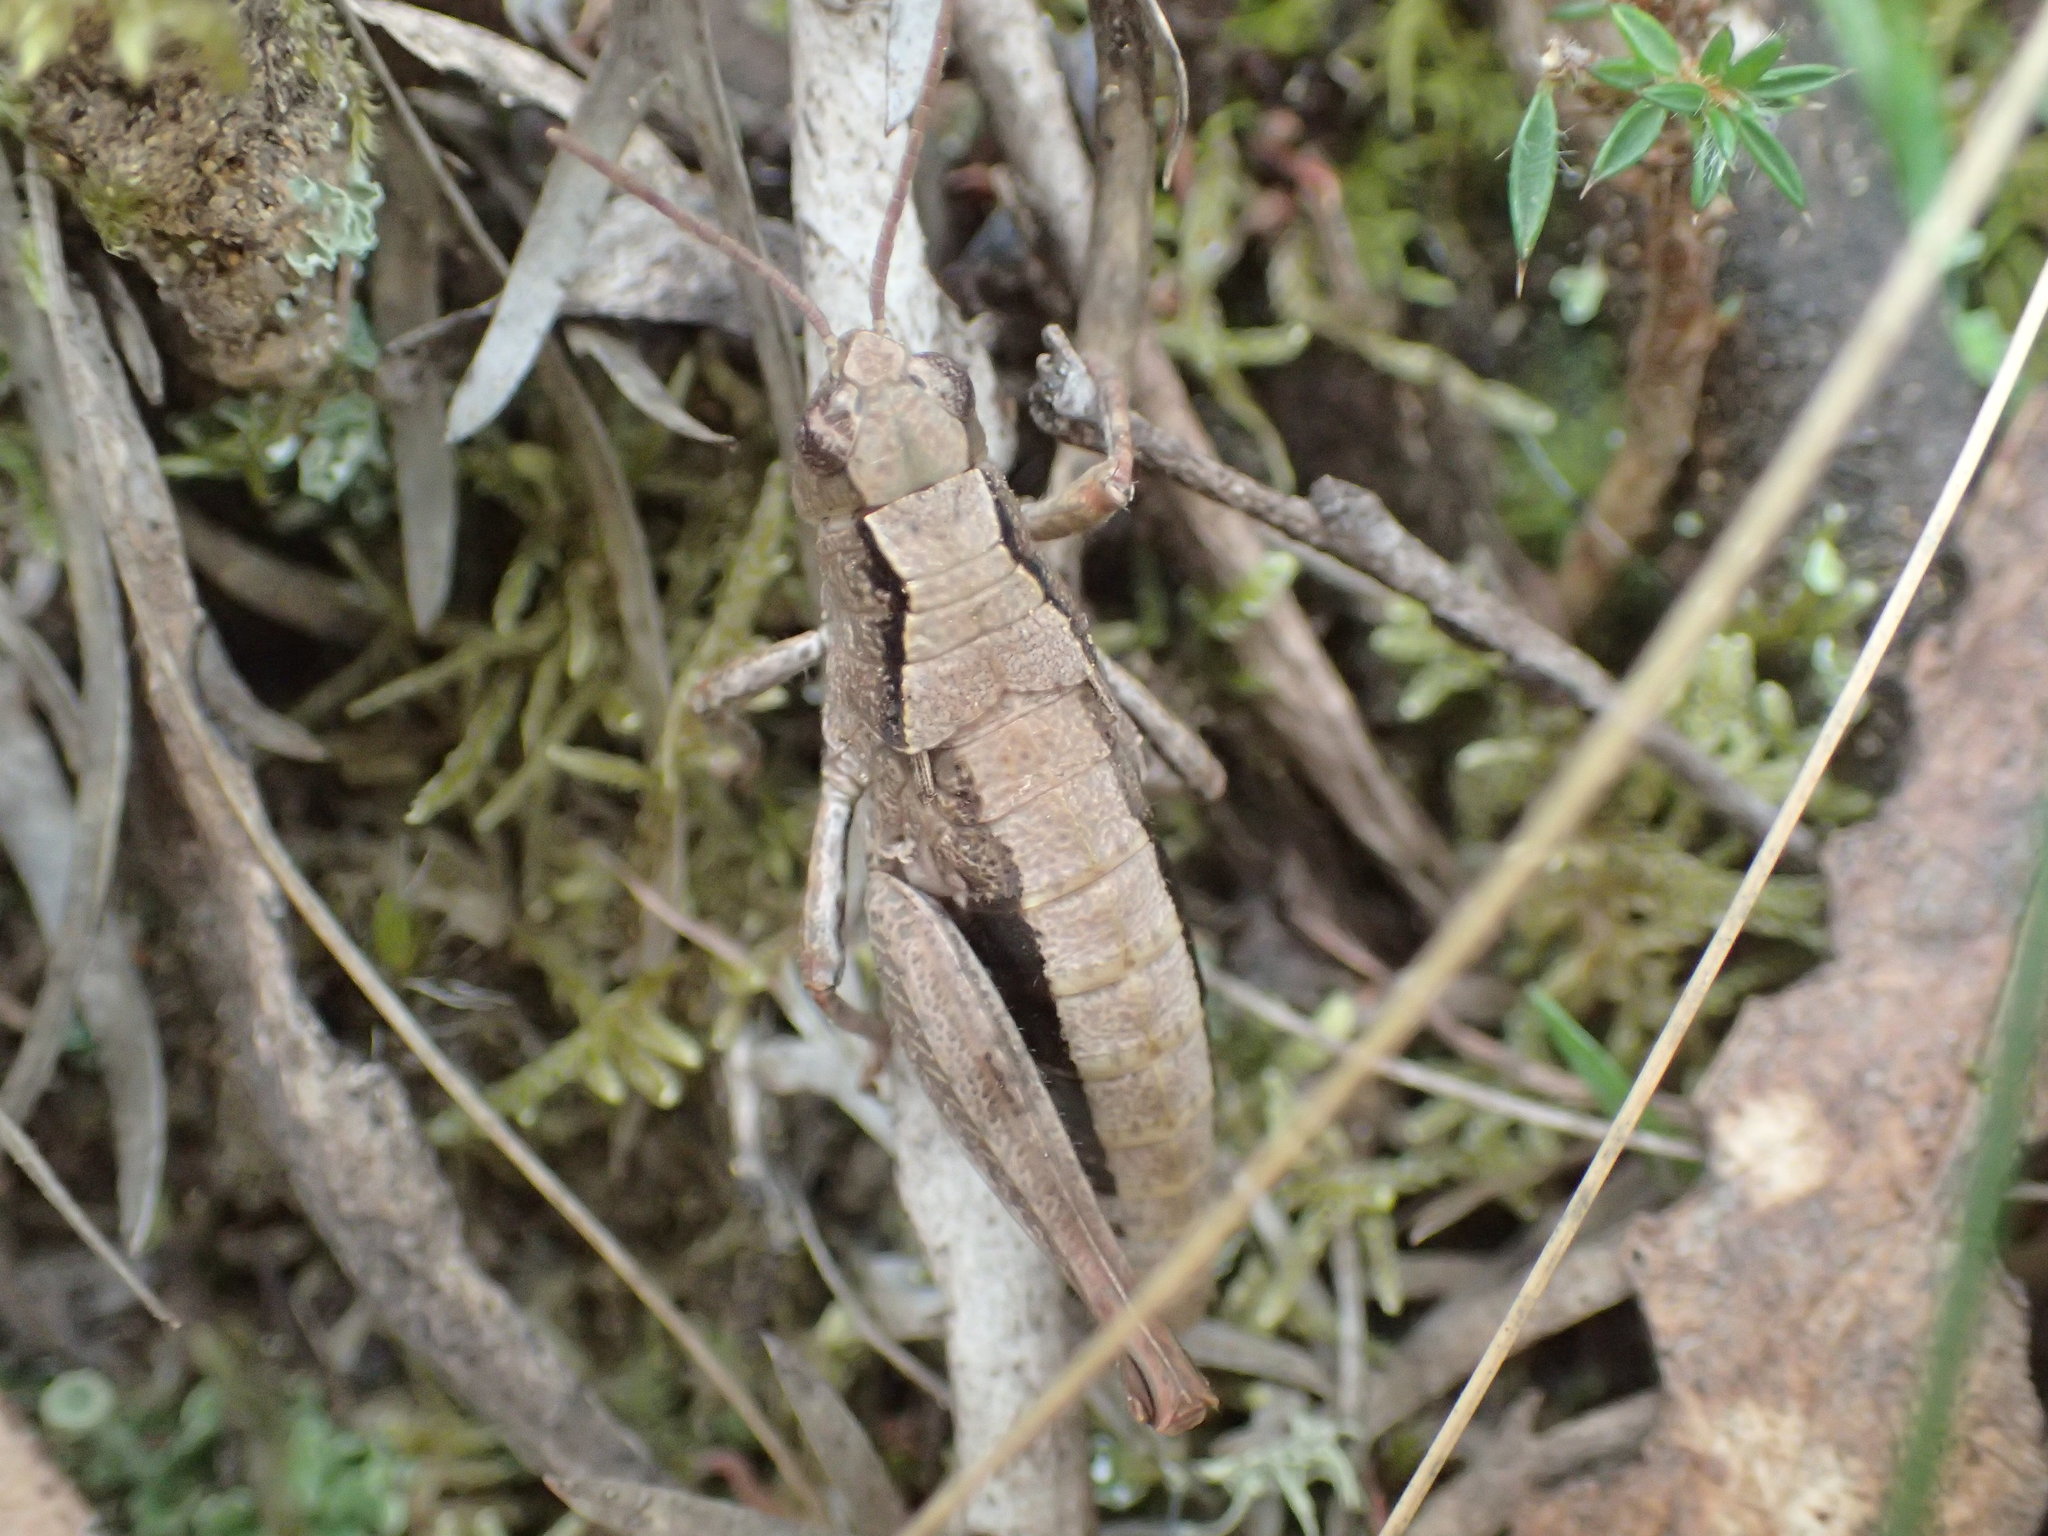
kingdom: Animalia
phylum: Arthropoda
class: Insecta
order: Orthoptera
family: Acrididae
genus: Tasmaniacris
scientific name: Tasmaniacris tasmaniensis
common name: Tasmanian grasshopper
